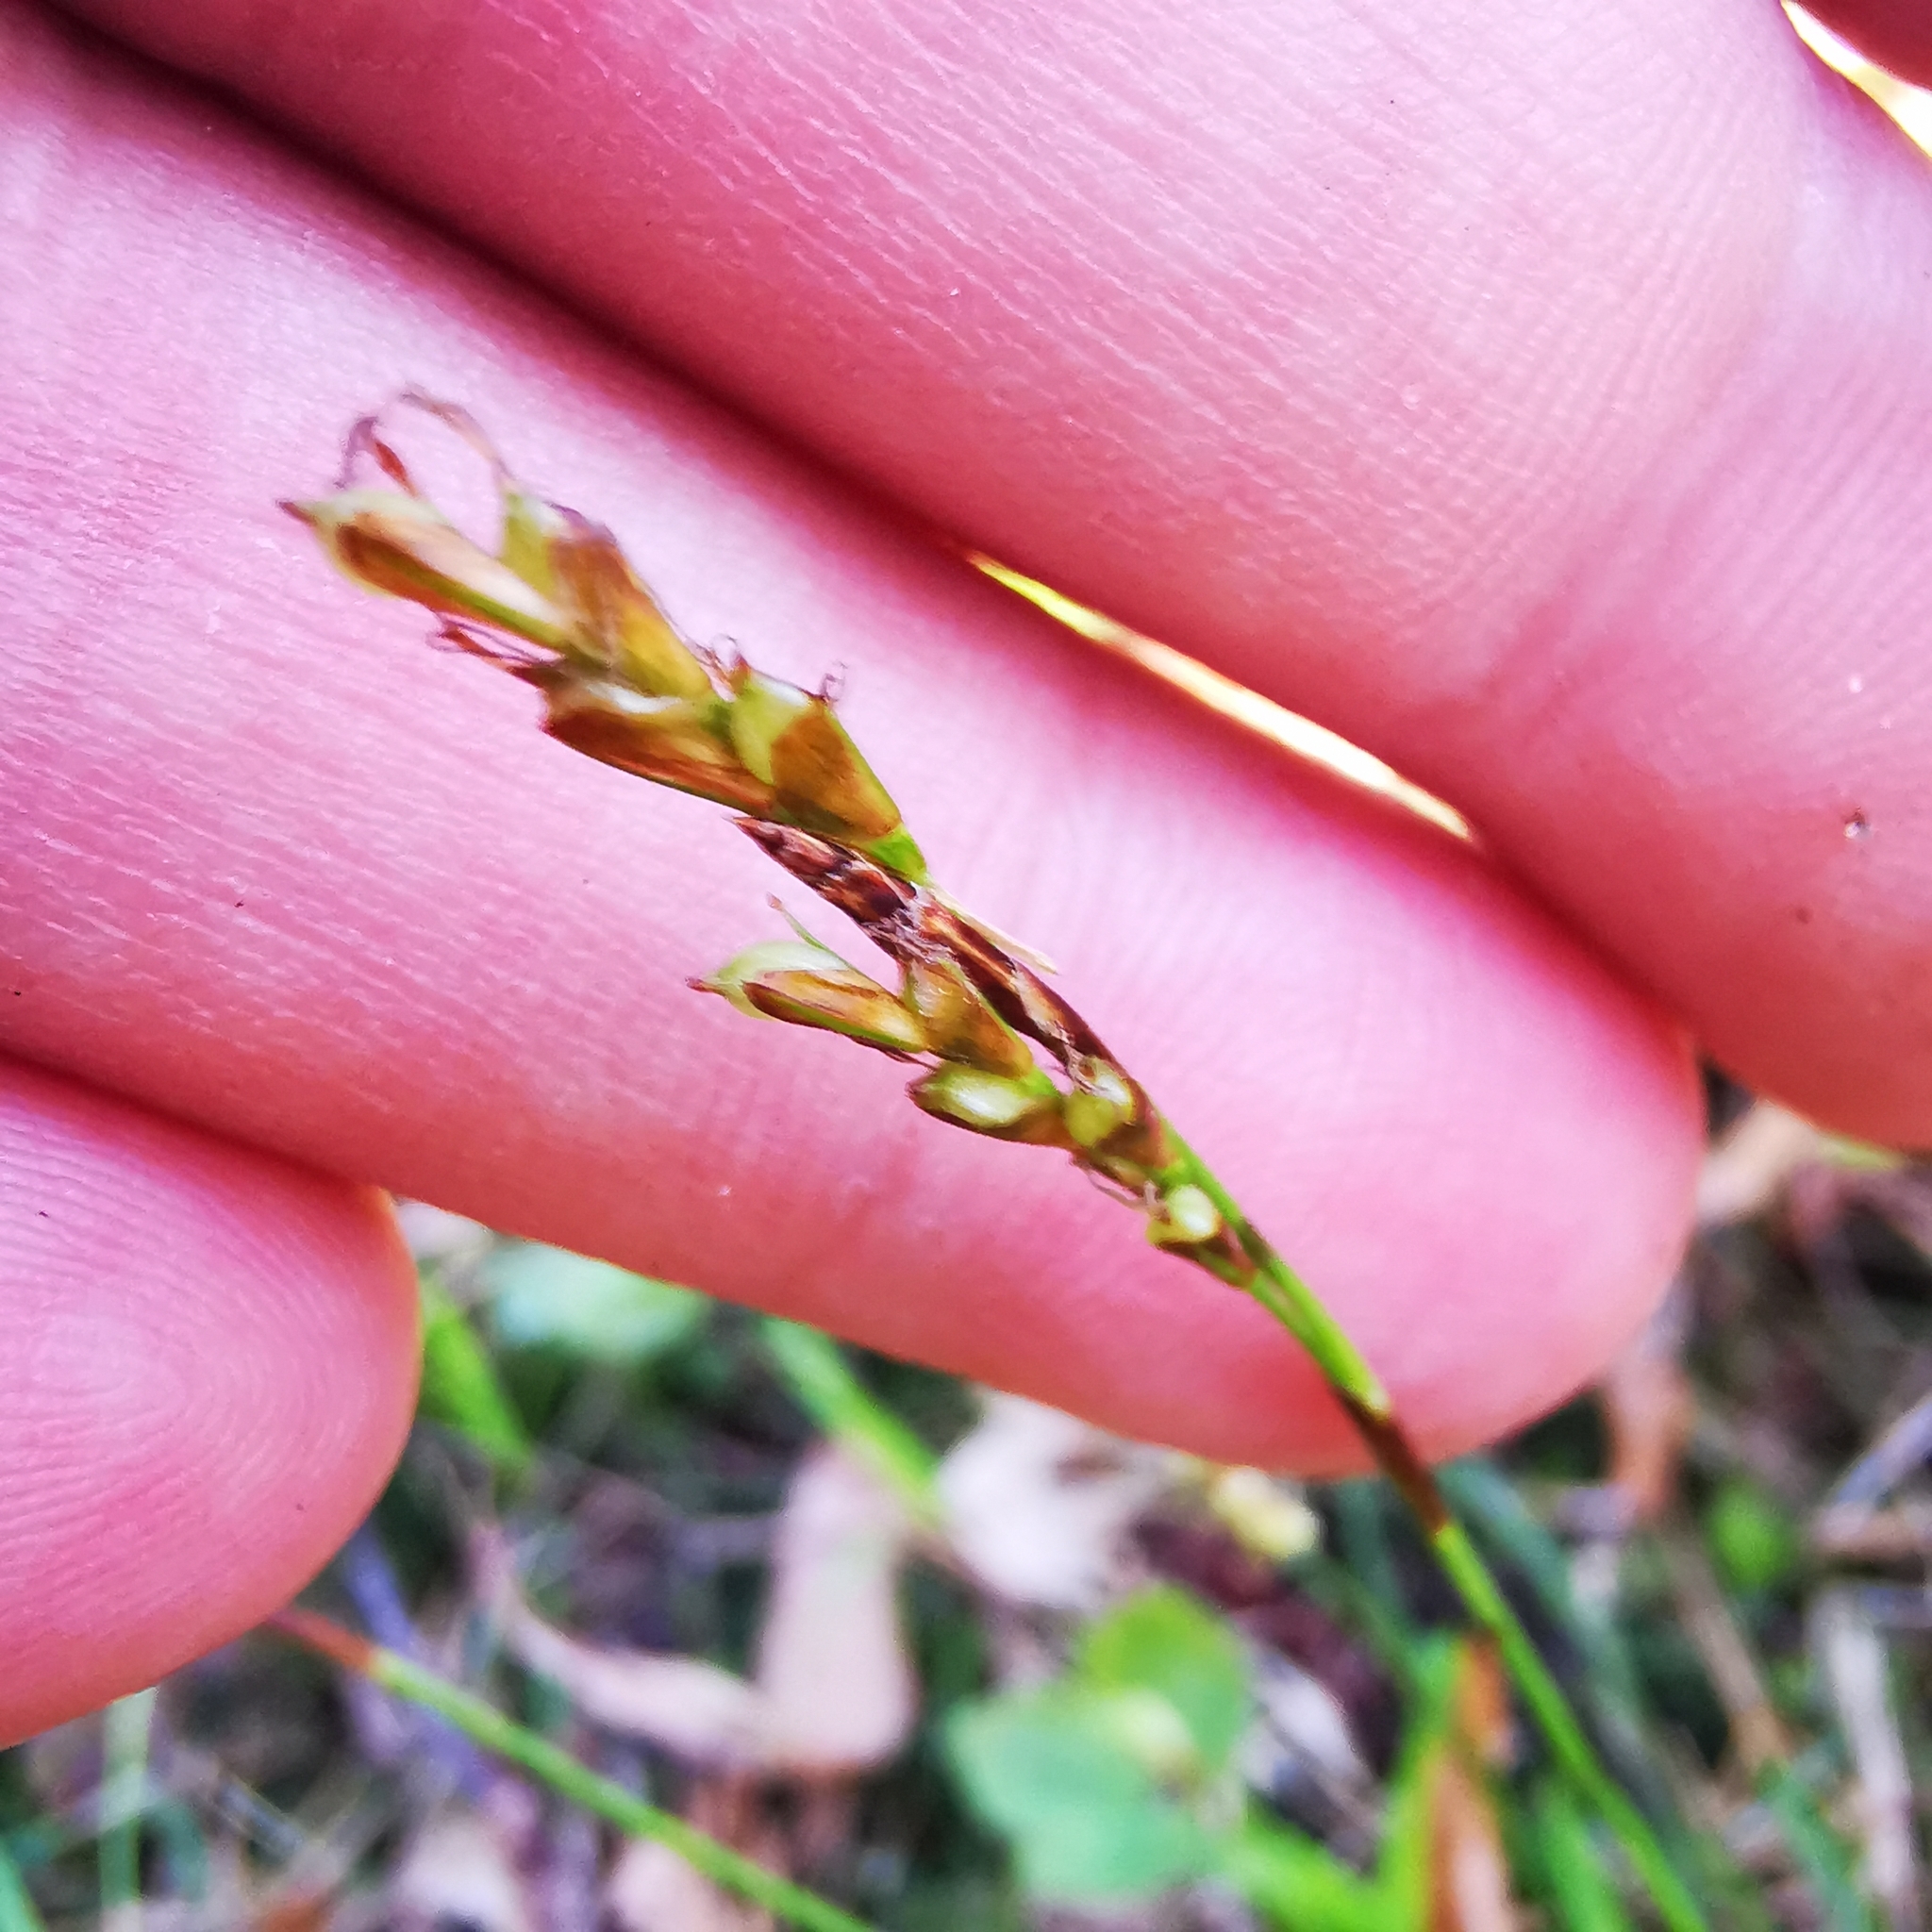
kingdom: Plantae
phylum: Tracheophyta
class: Liliopsida
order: Poales
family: Cyperaceae
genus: Carex
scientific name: Carex digitata
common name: Fingered sedge
